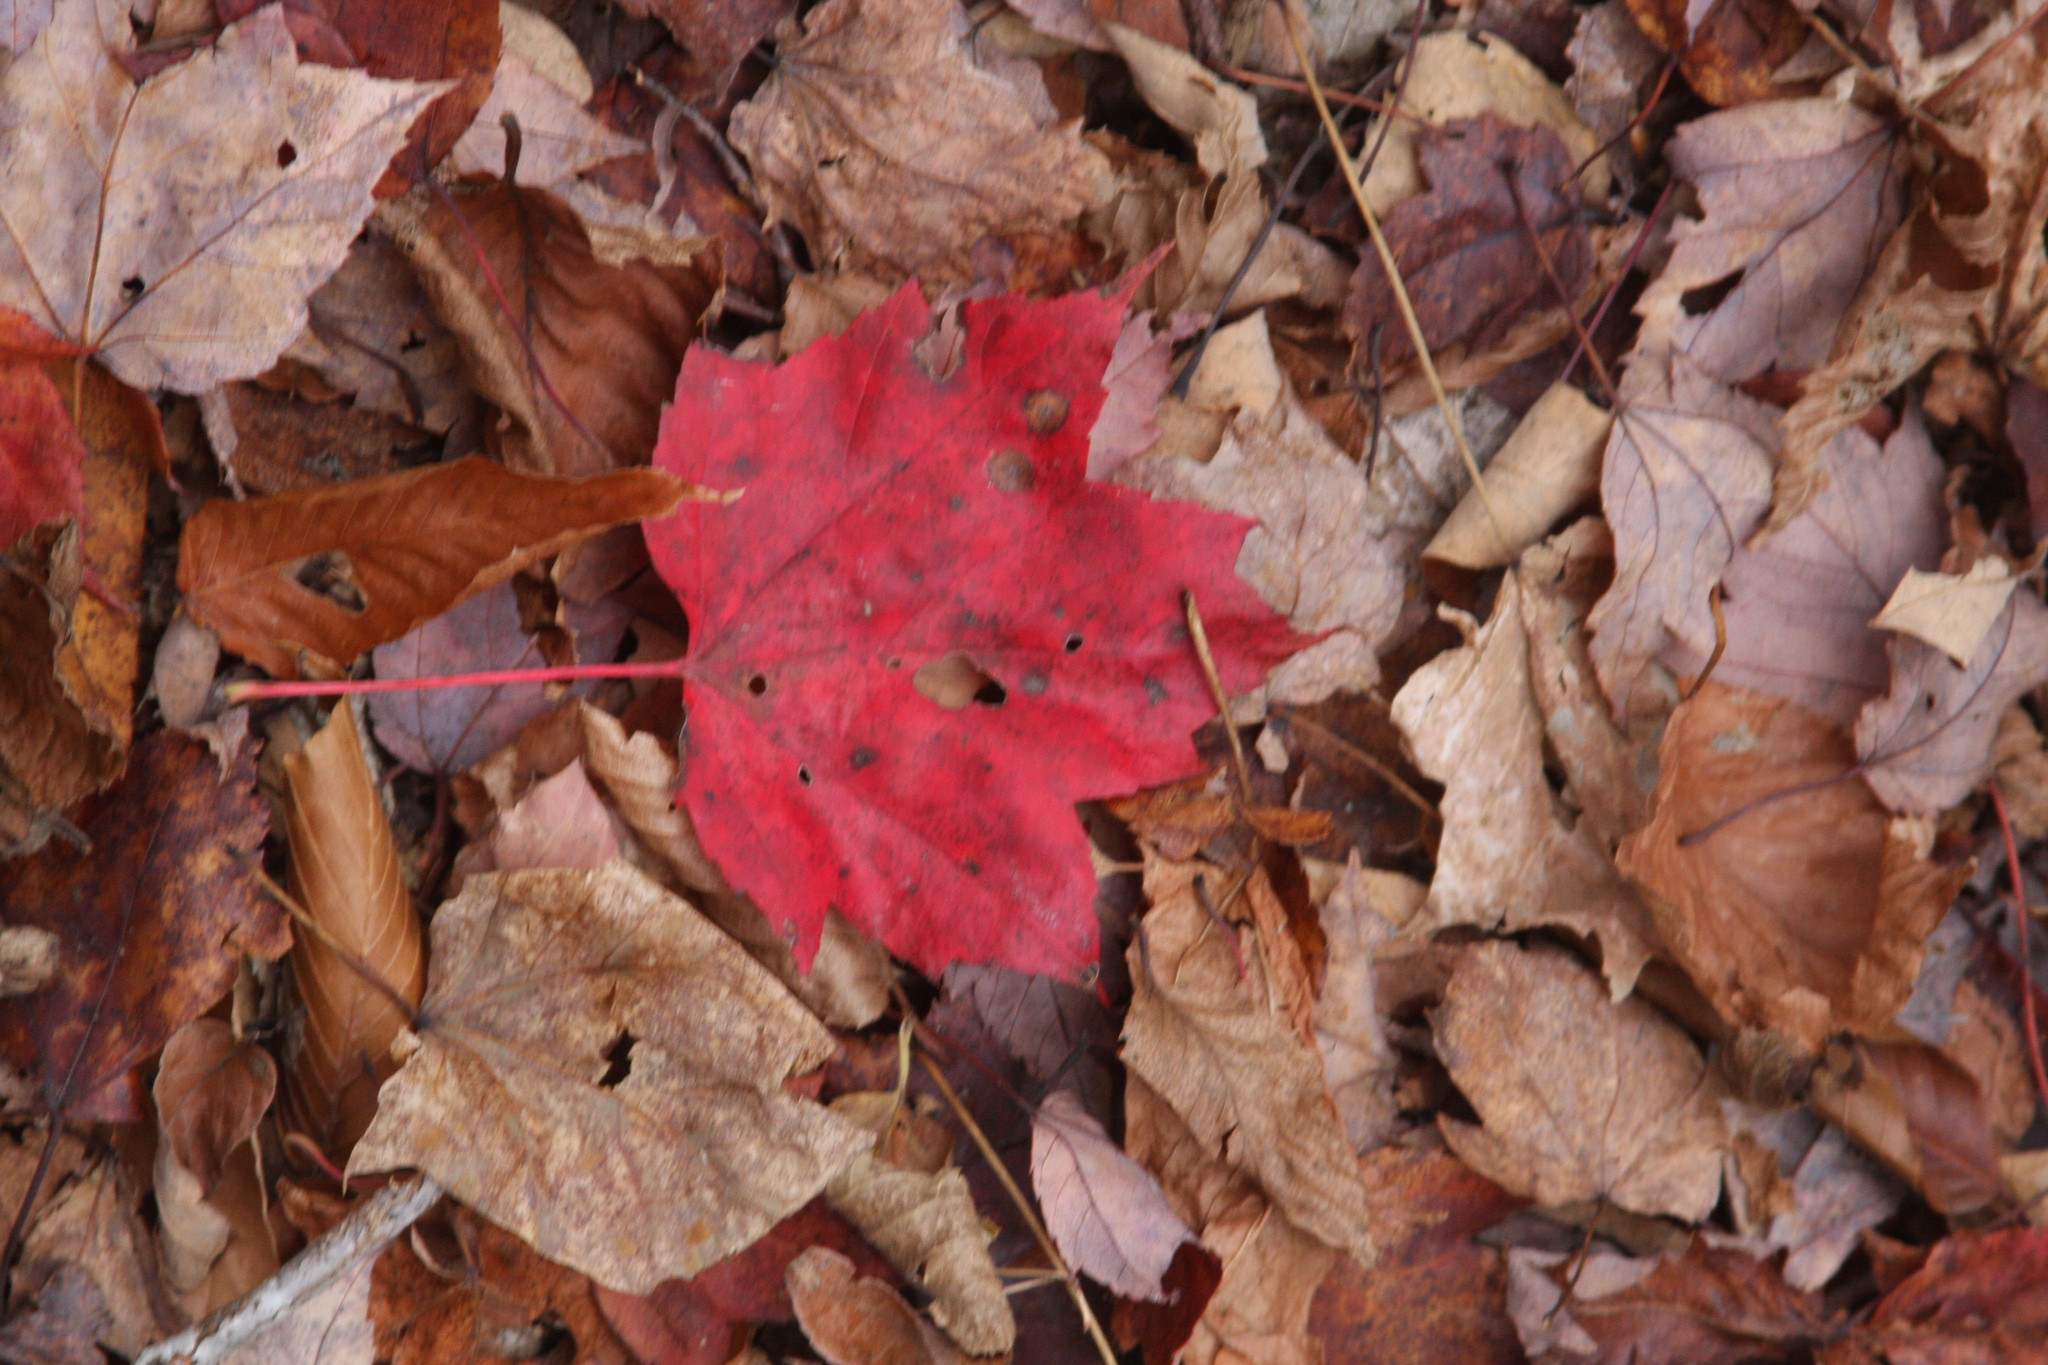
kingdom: Plantae
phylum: Tracheophyta
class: Magnoliopsida
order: Sapindales
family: Sapindaceae
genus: Acer
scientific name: Acer rubrum
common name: Red maple
